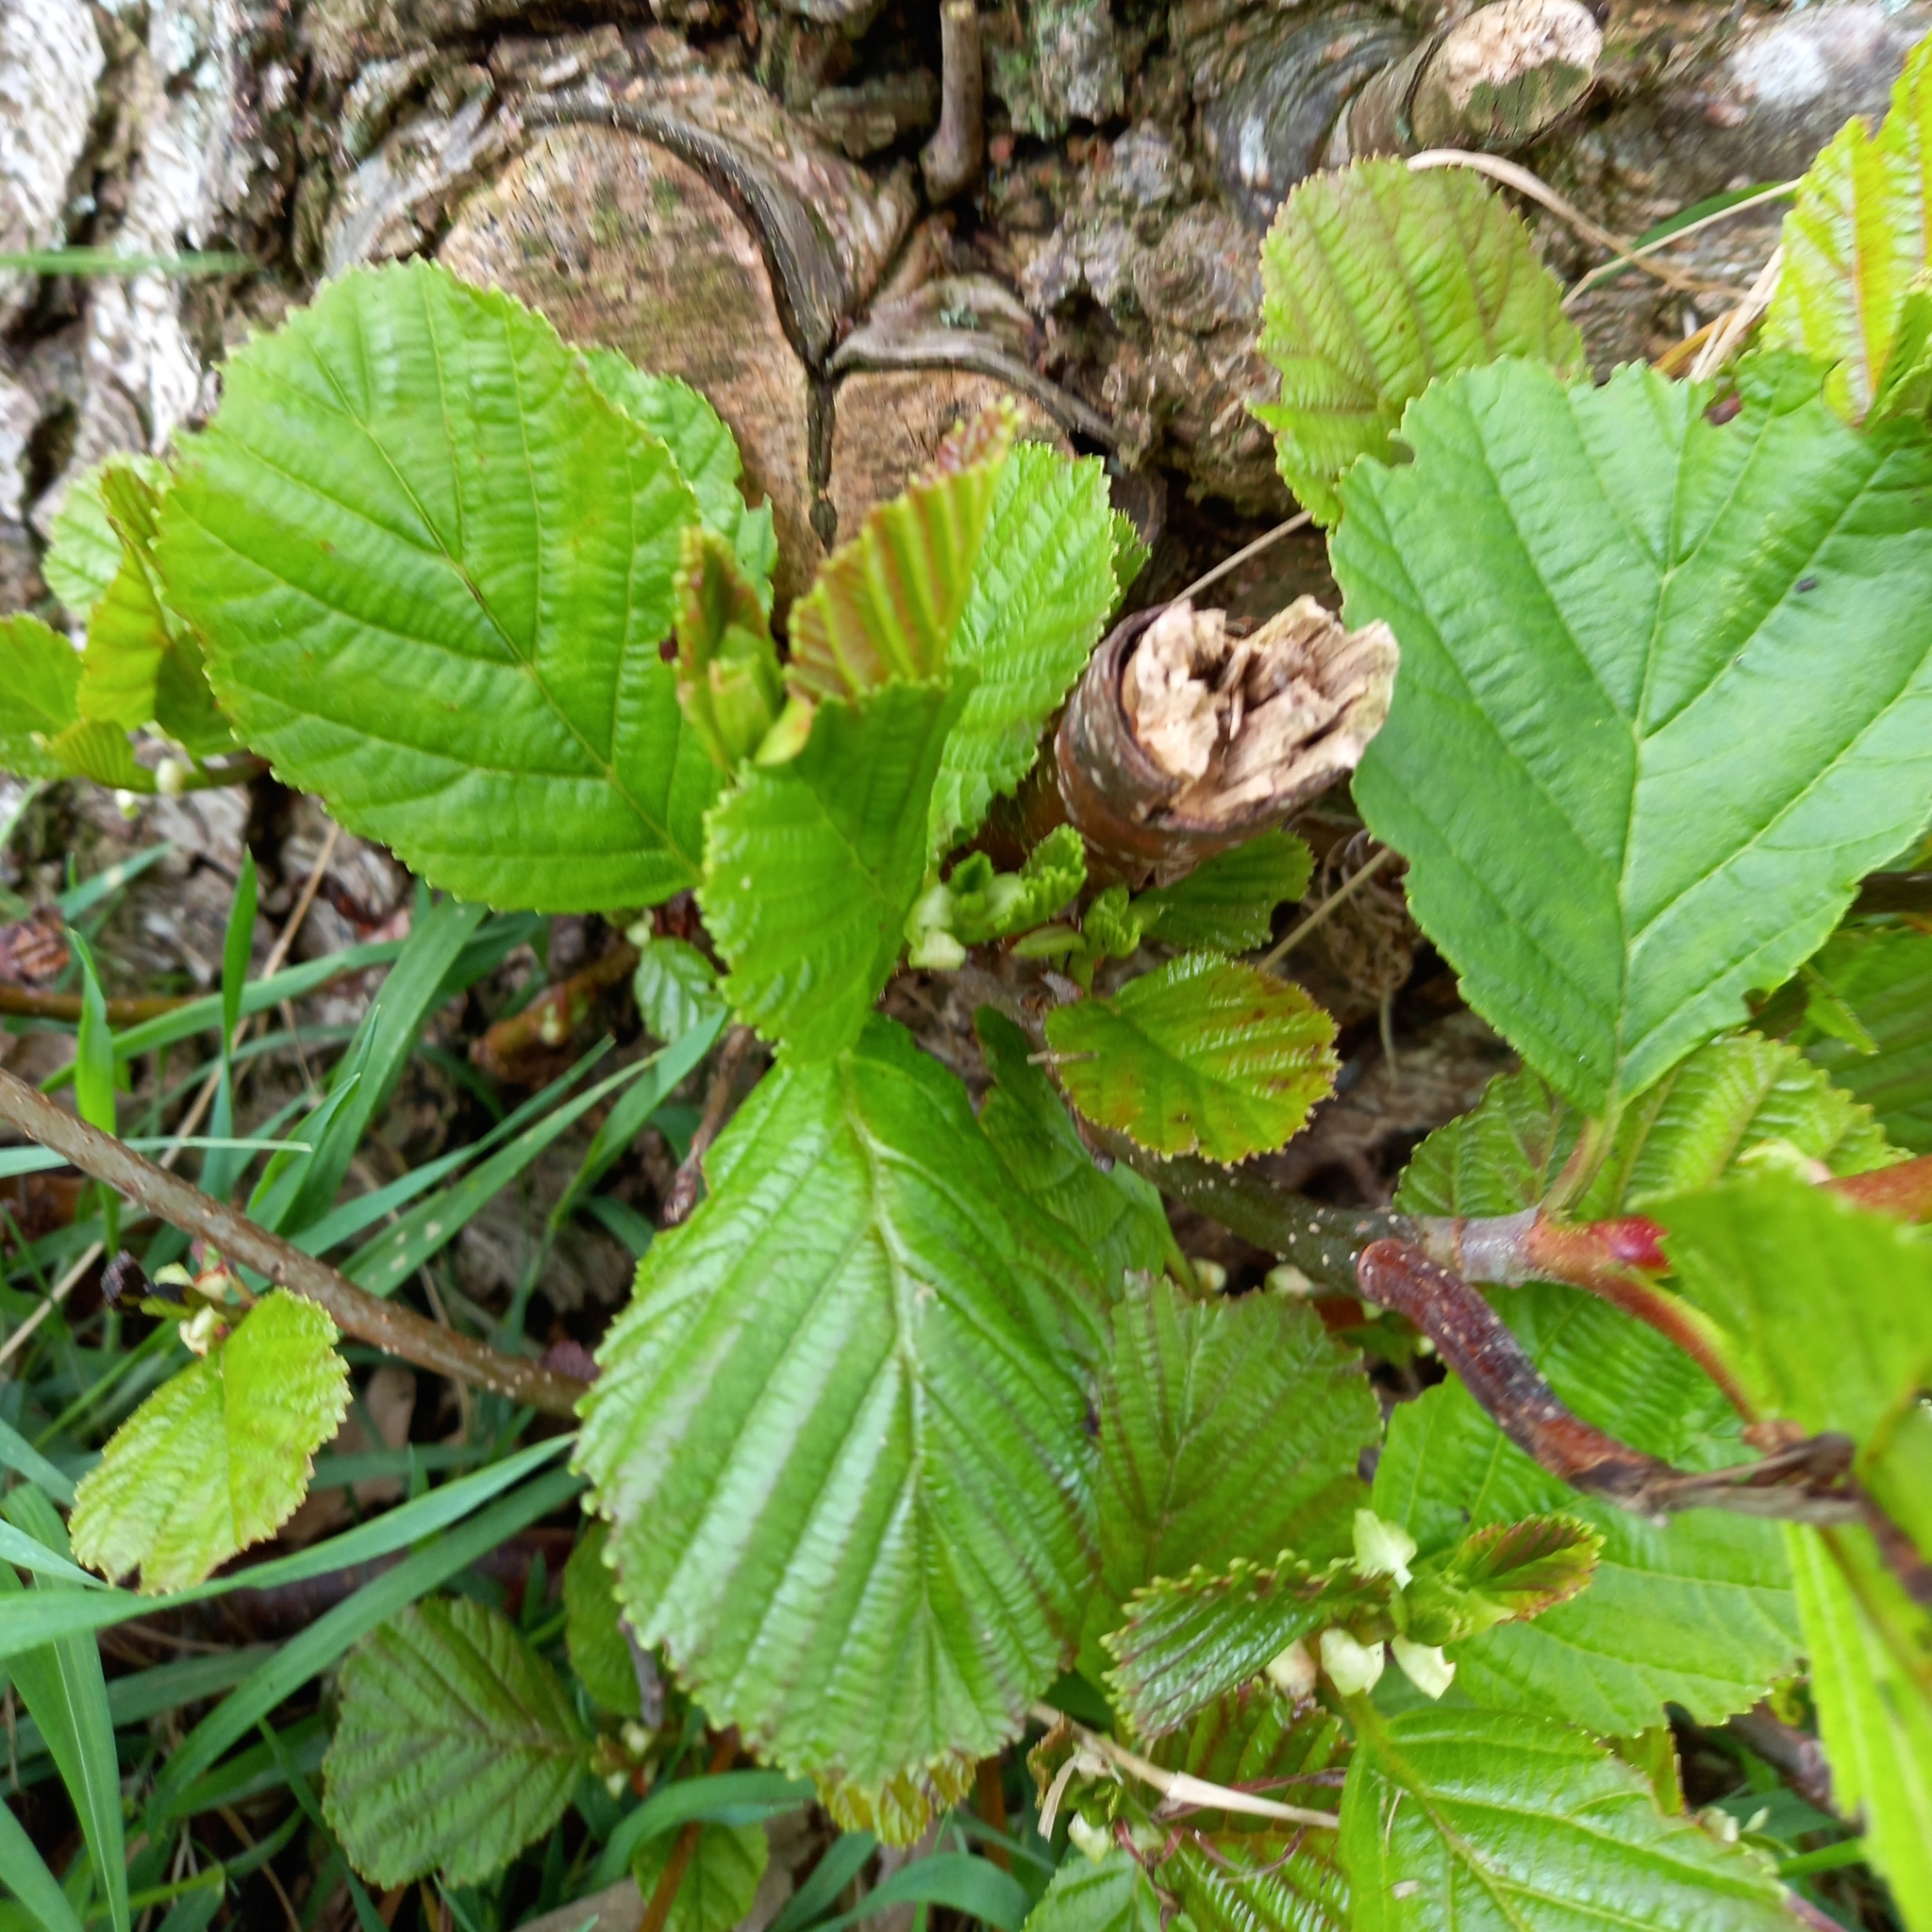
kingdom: Plantae
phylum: Tracheophyta
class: Magnoliopsida
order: Fagales
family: Betulaceae
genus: Alnus
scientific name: Alnus glutinosa
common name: Black alder
